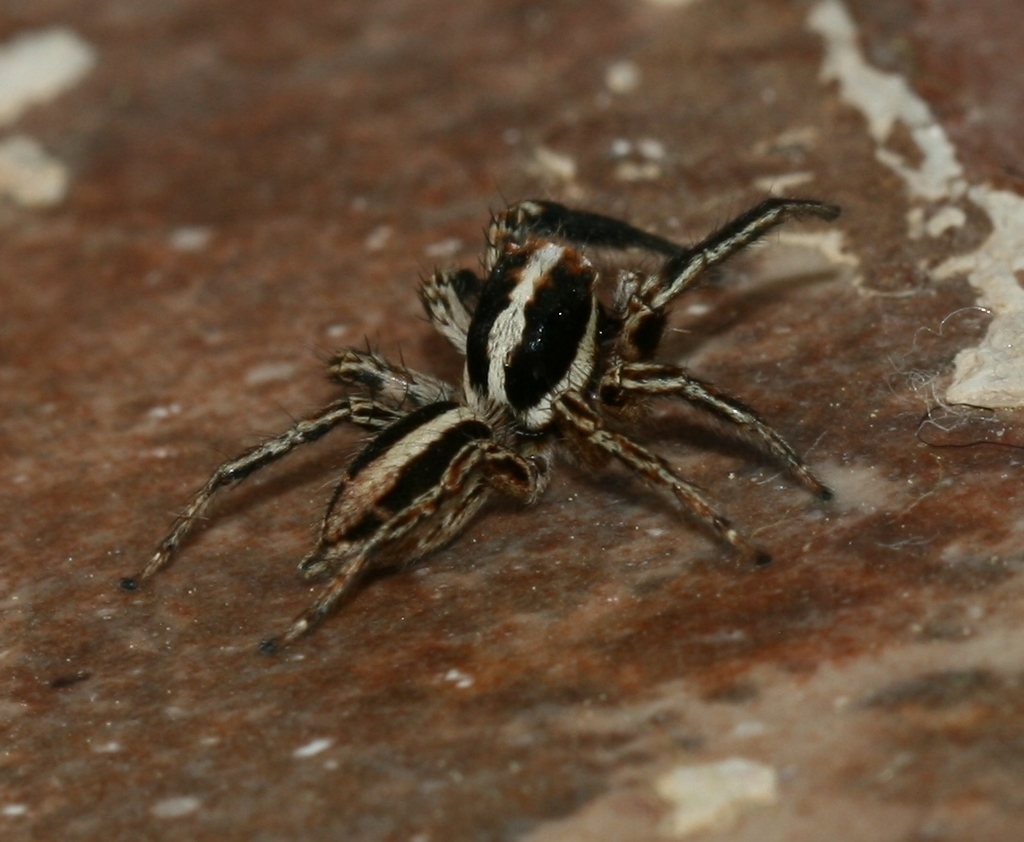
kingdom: Animalia
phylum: Arthropoda
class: Arachnida
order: Araneae
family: Salticidae
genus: Plexippus
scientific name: Plexippus paykulli
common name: Pantropical jumper
